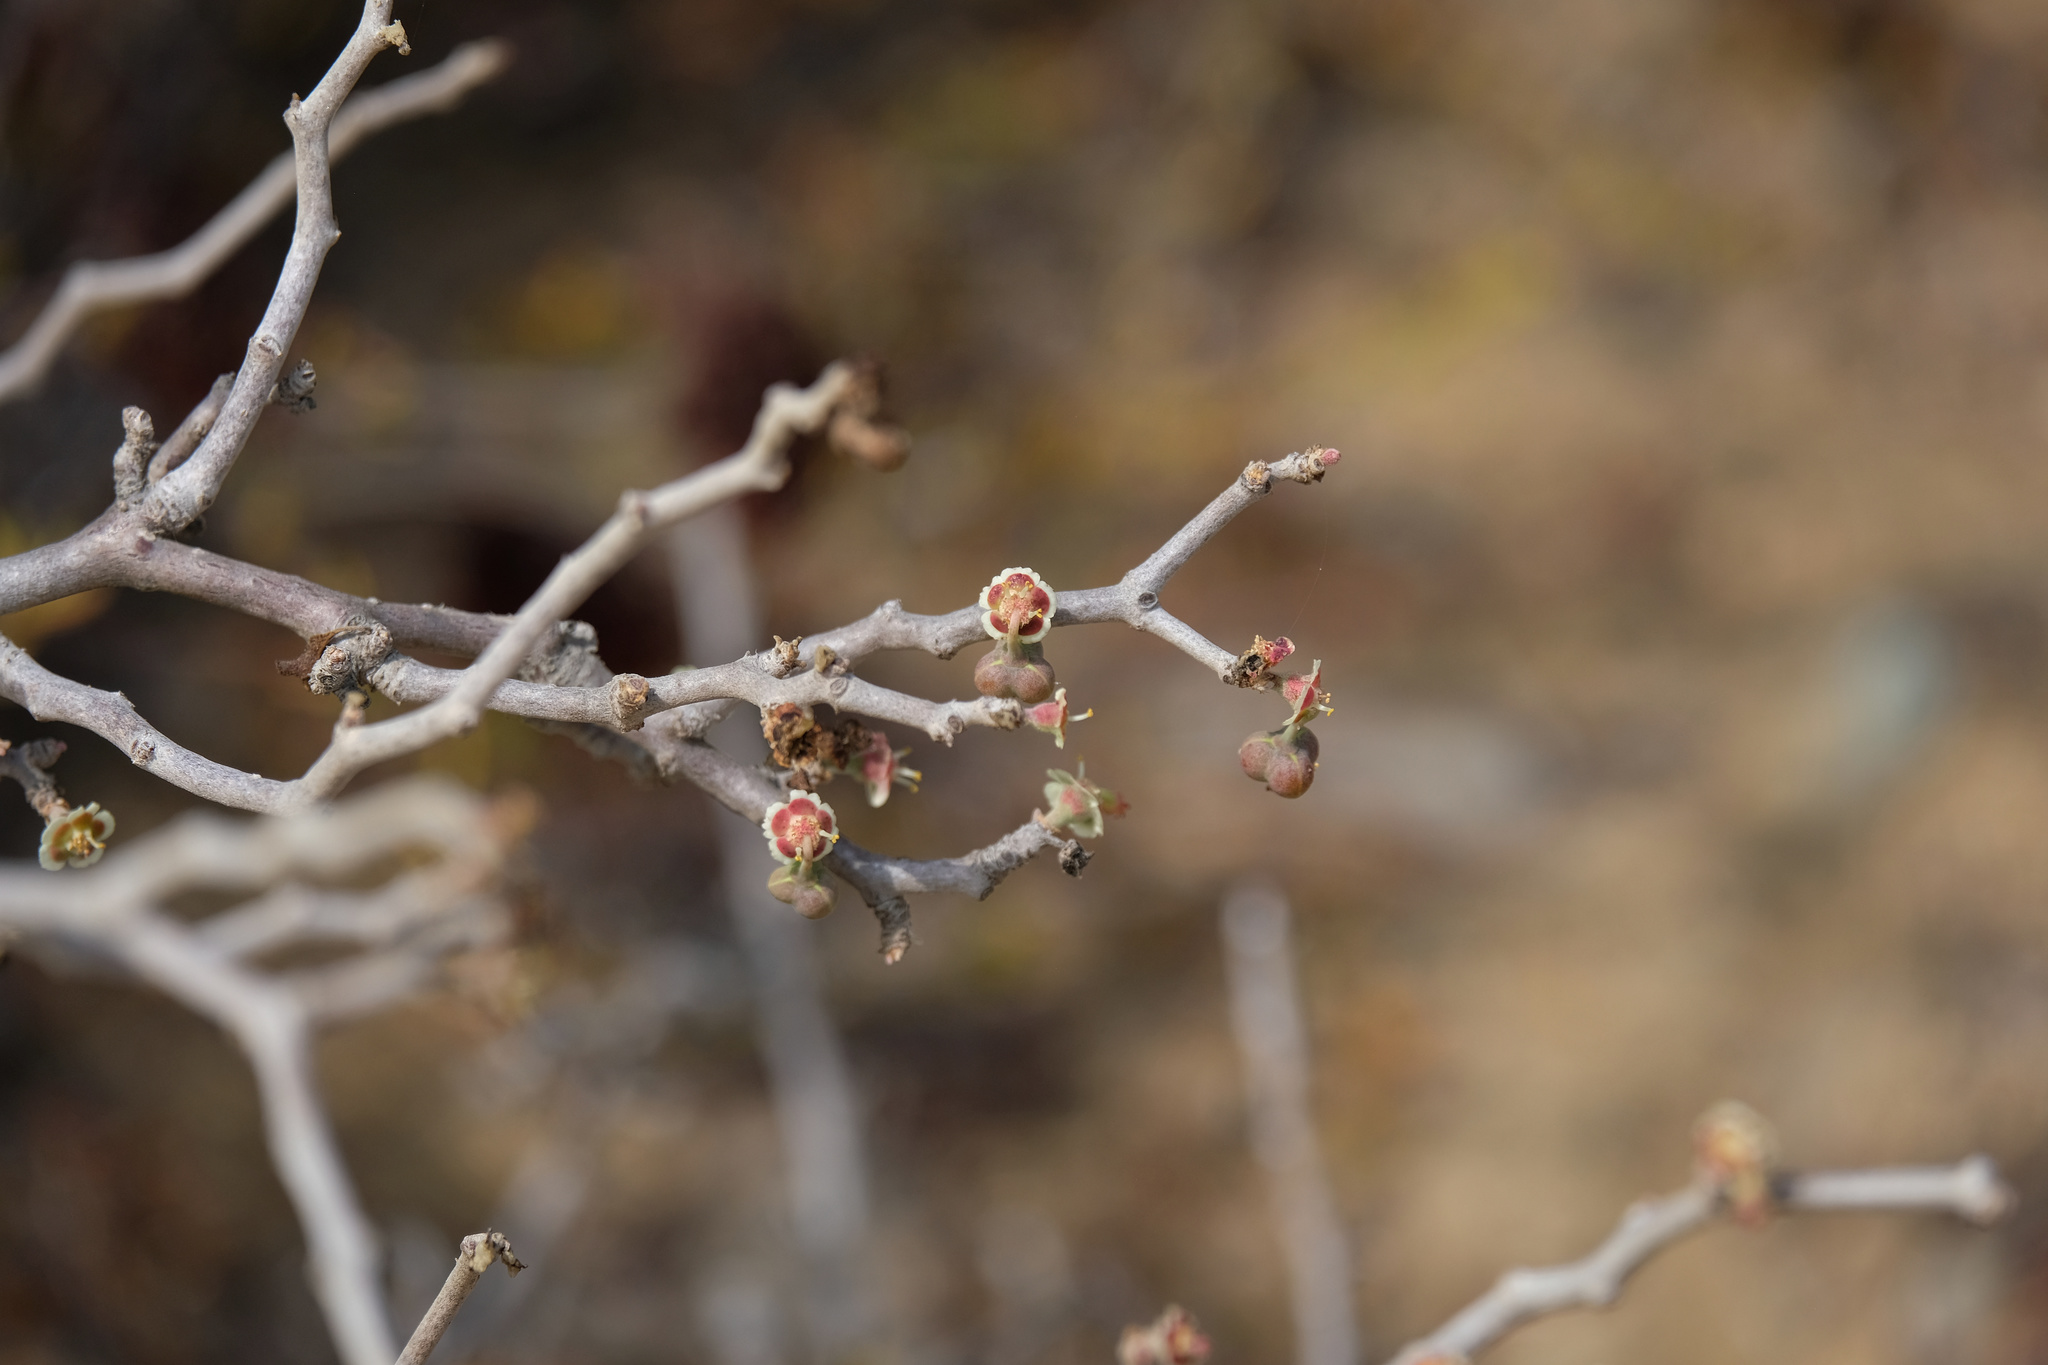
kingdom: Plantae
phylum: Tracheophyta
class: Magnoliopsida
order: Malpighiales
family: Euphorbiaceae
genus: Euphorbia
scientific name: Euphorbia misera
